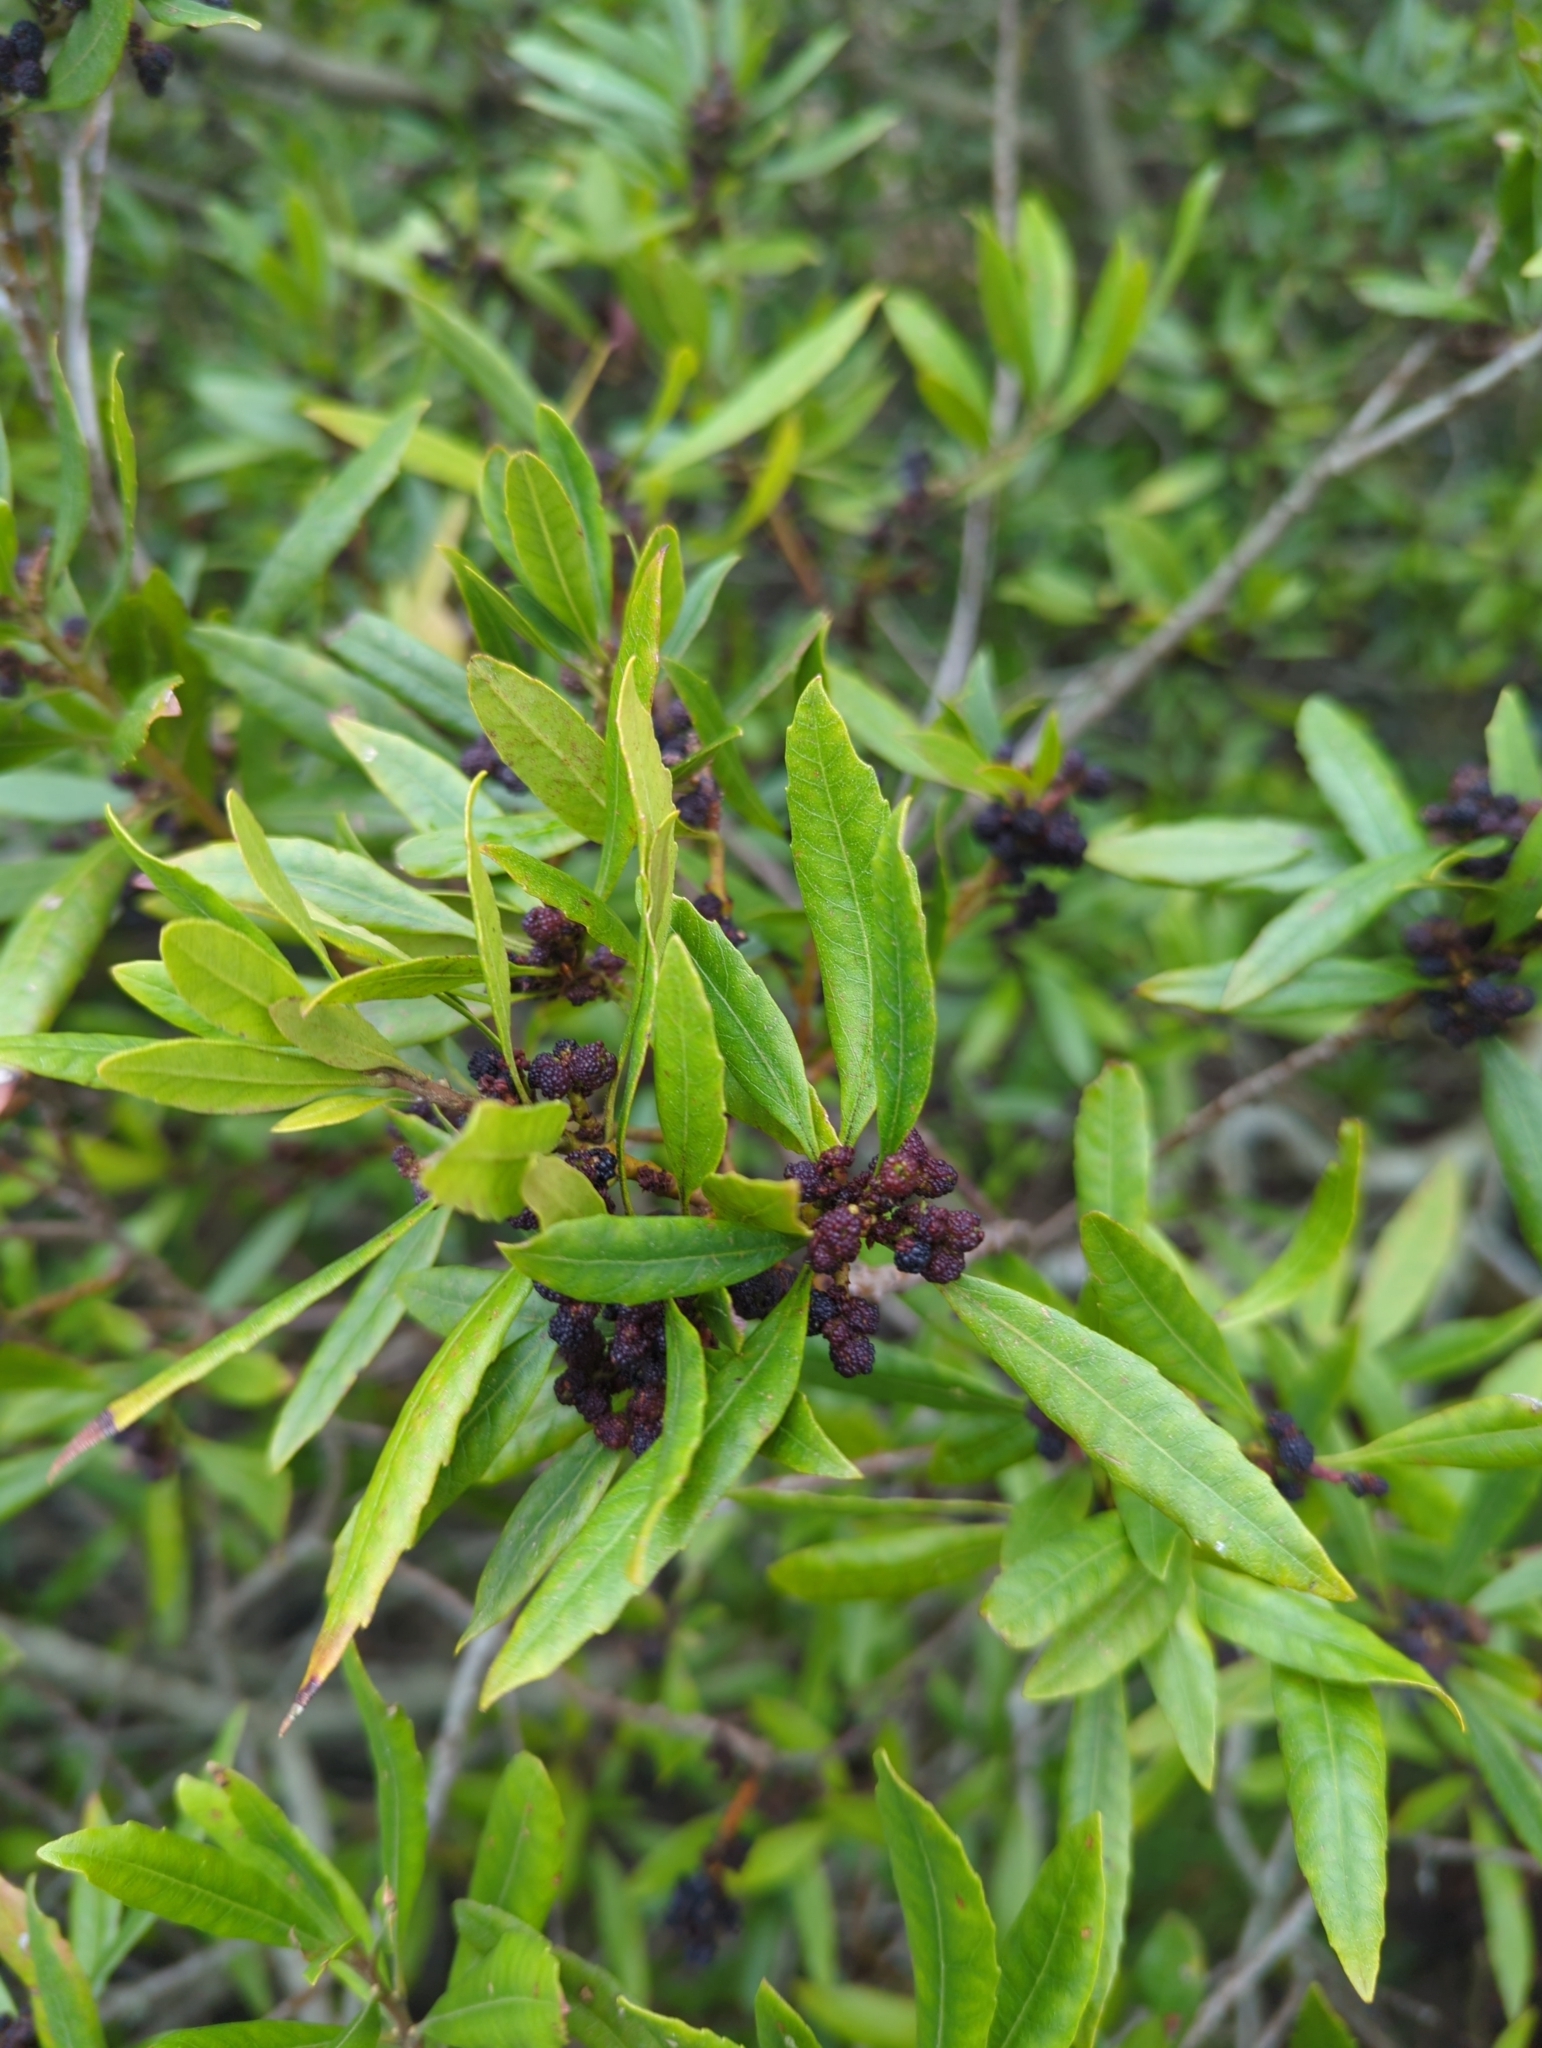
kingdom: Plantae
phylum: Tracheophyta
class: Magnoliopsida
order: Fagales
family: Myricaceae
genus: Morella
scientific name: Morella californica
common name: California wax-myrtle
